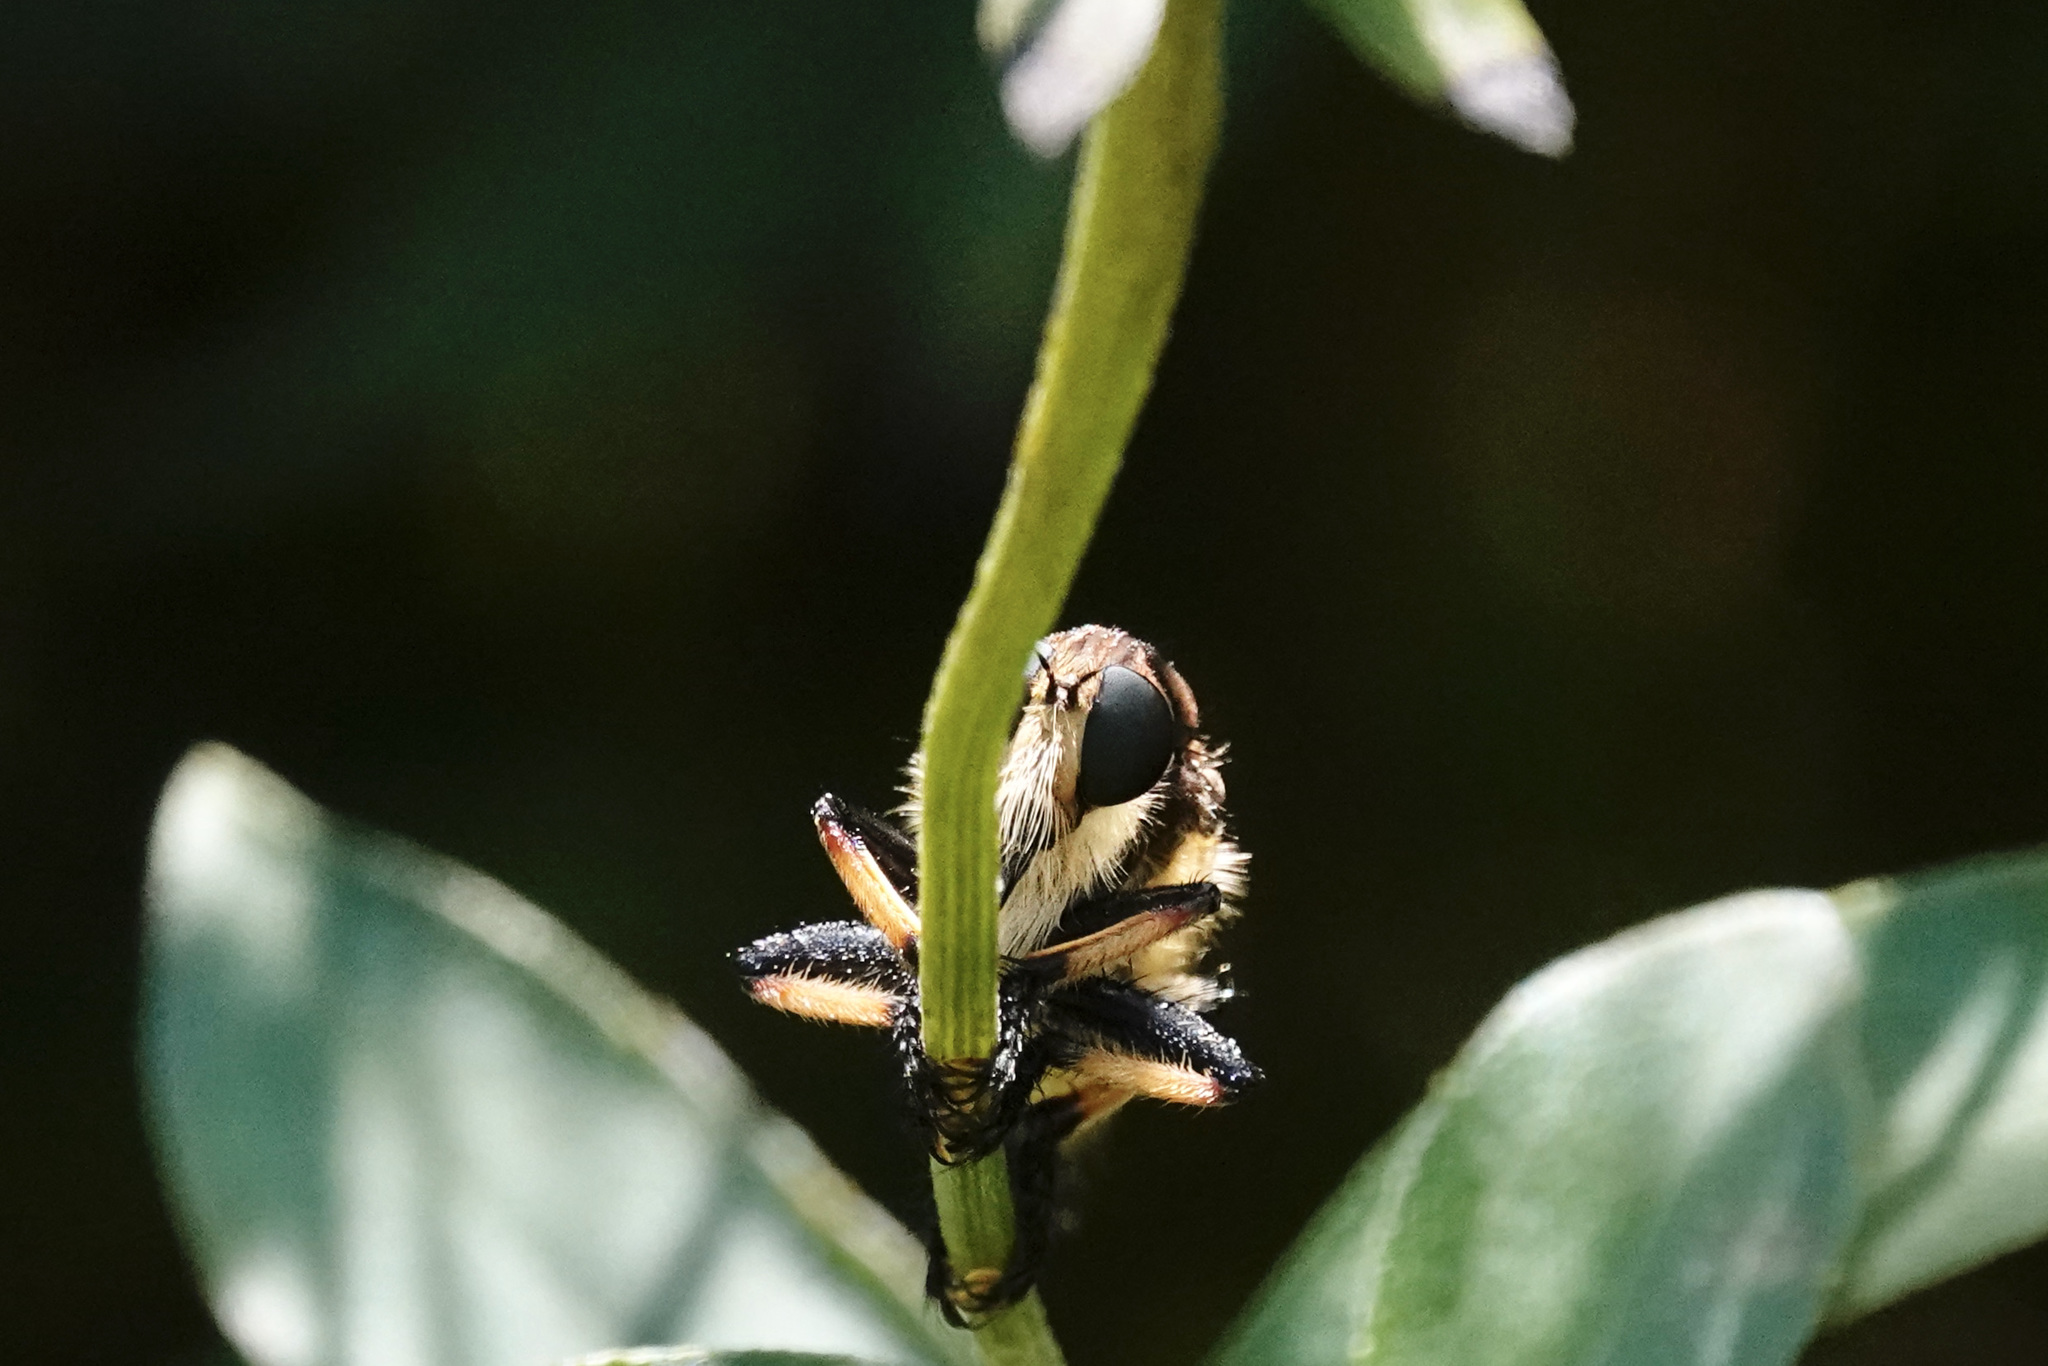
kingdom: Animalia
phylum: Arthropoda
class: Insecta
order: Diptera
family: Asilidae
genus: Promachus
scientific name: Promachus rufipes
